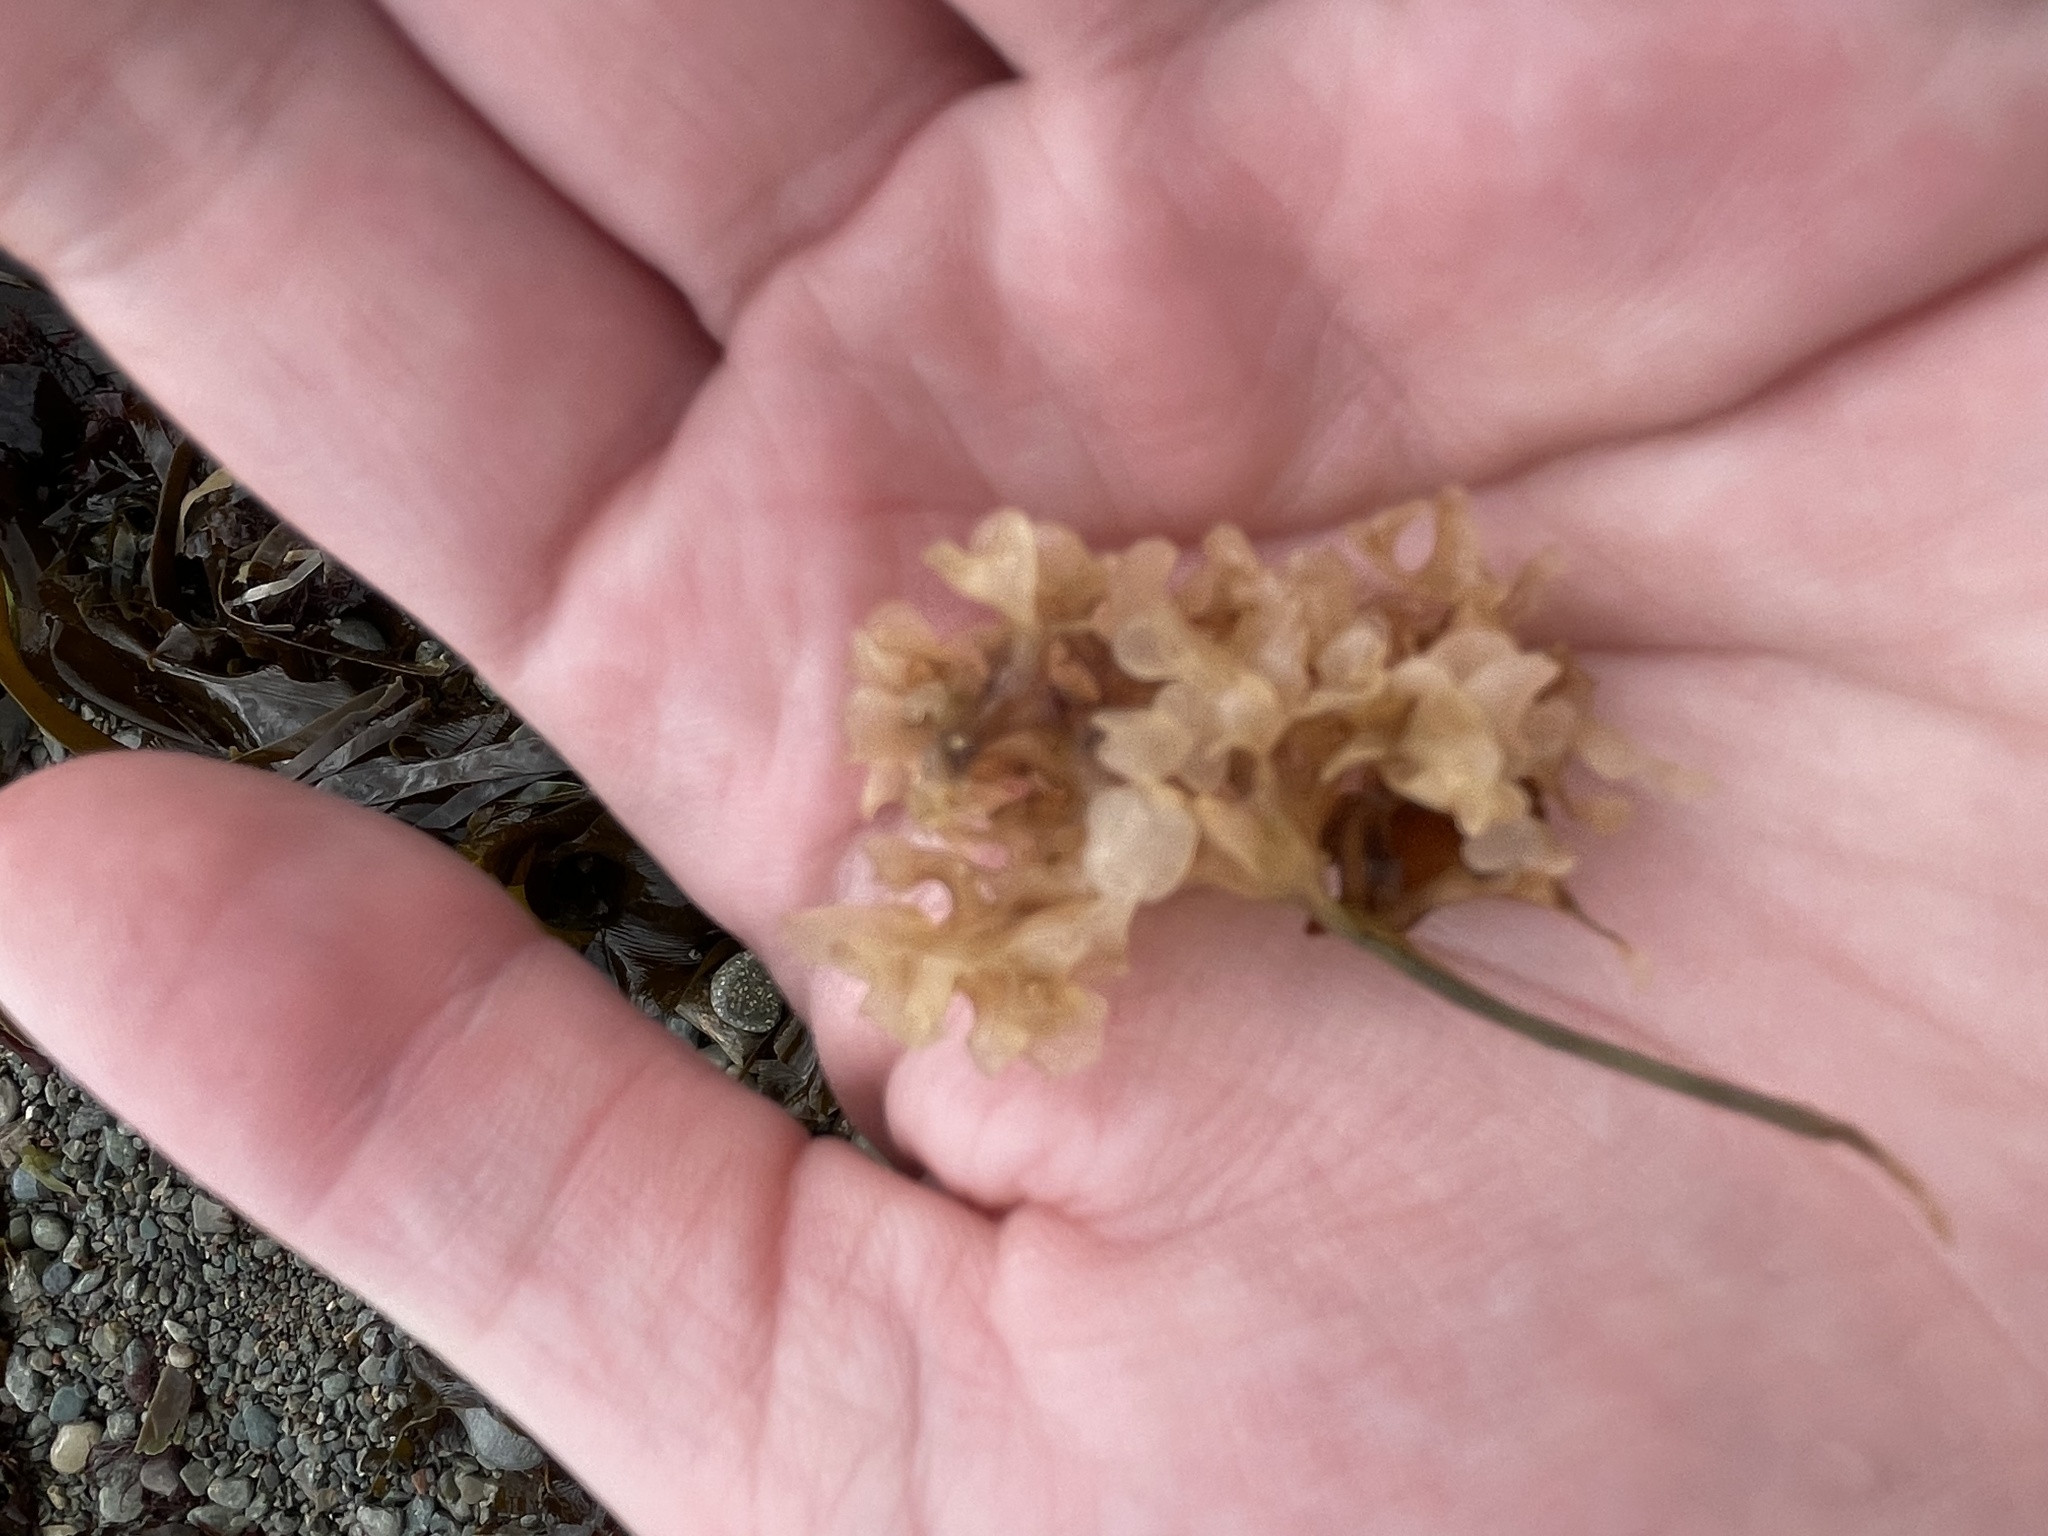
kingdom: Plantae
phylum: Rhodophyta
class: Florideophyceae
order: Gigartinales
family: Gigartinaceae
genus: Chondrus
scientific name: Chondrus crispus
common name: Carrageen
